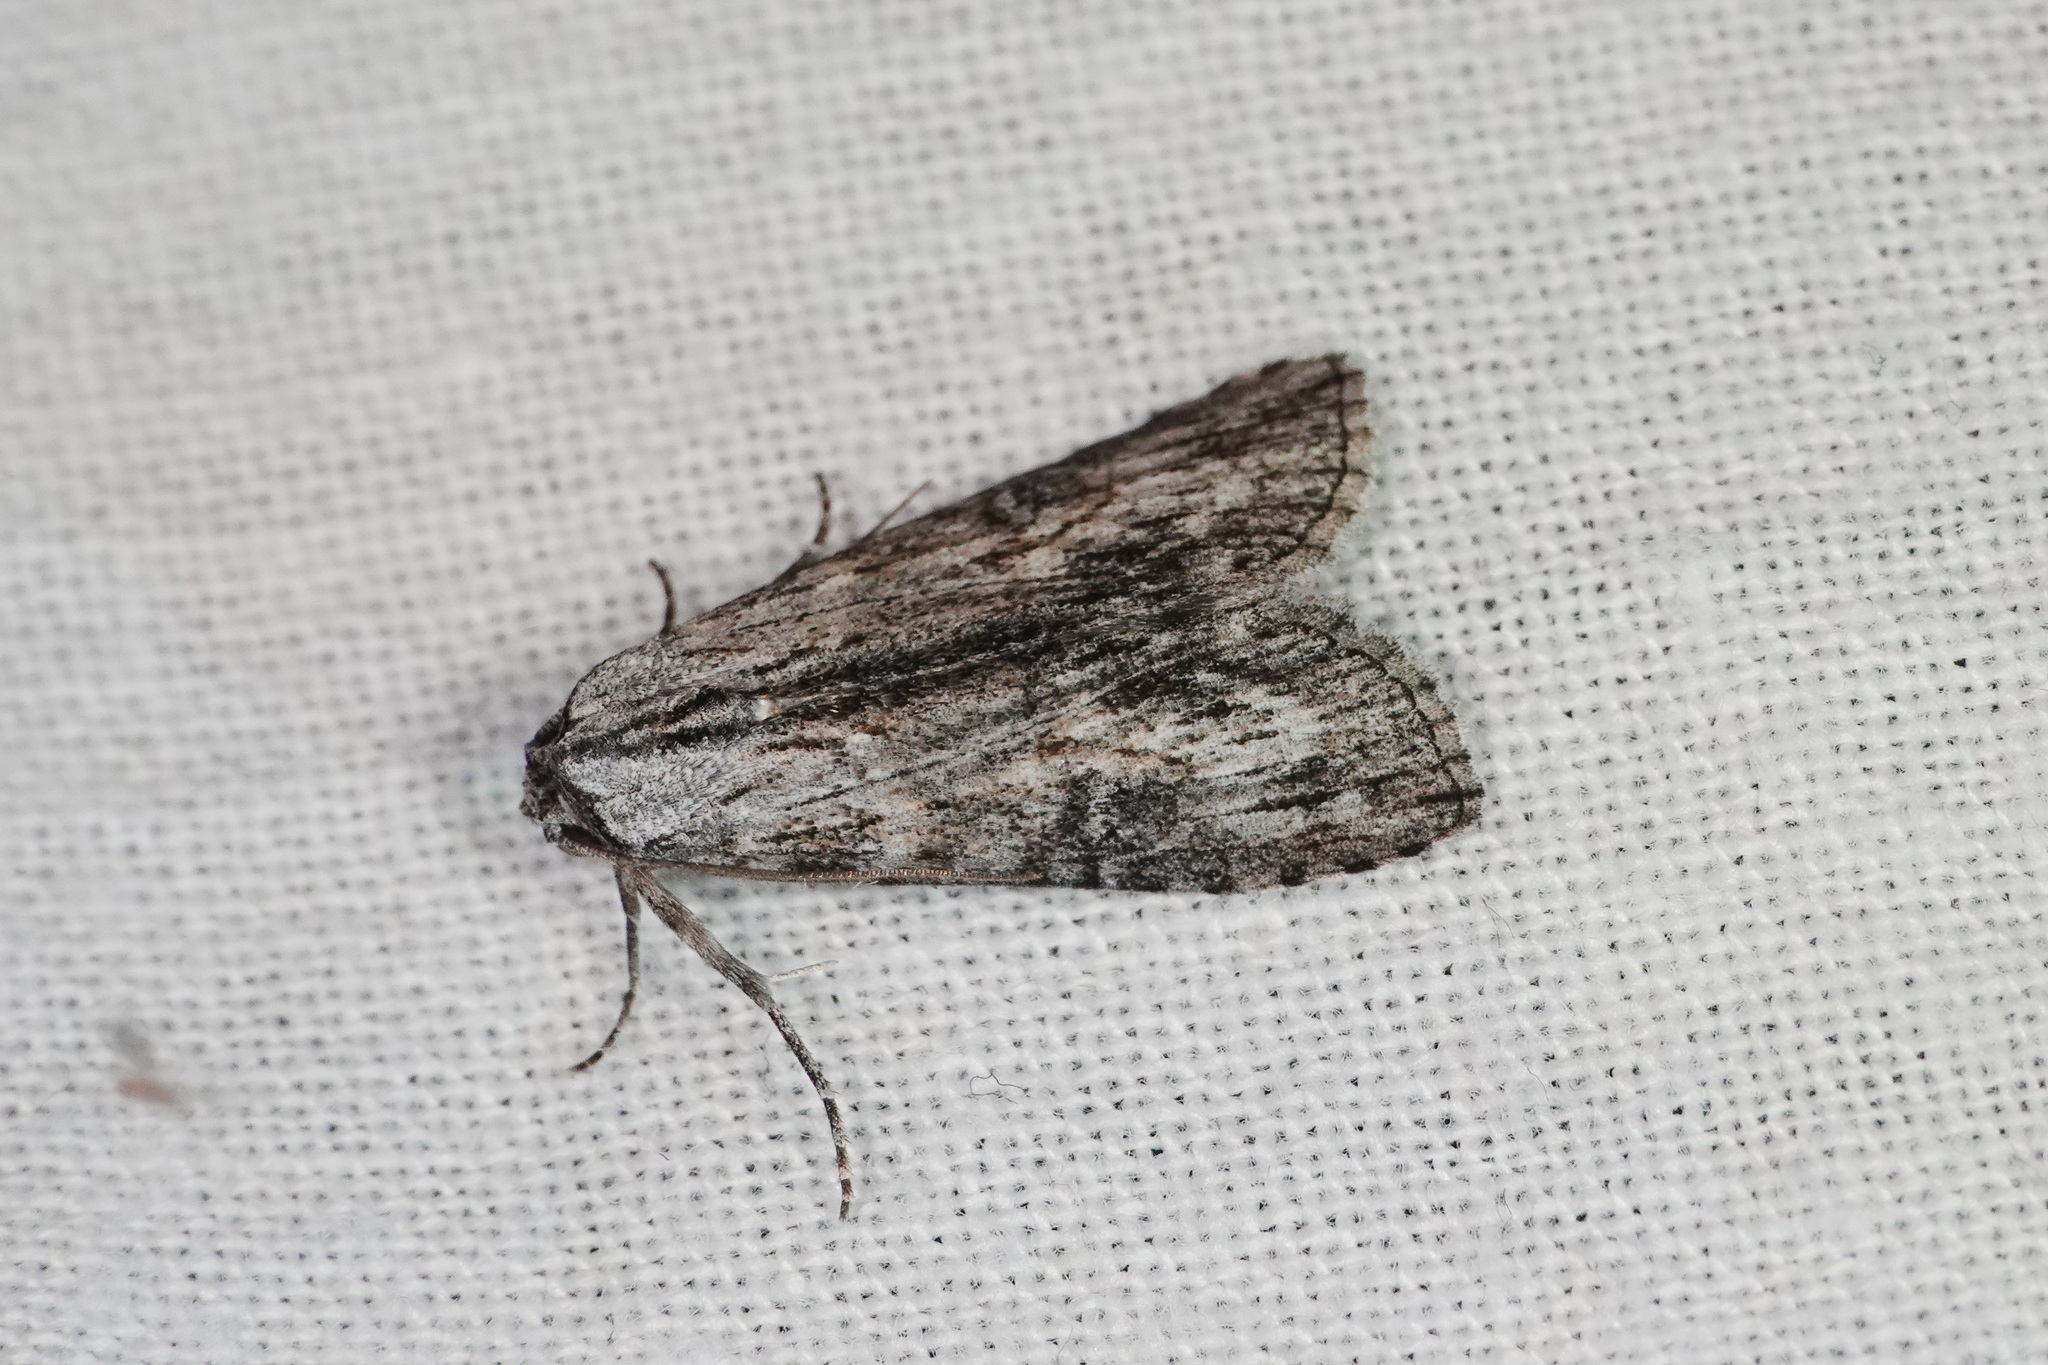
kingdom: Animalia
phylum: Arthropoda
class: Insecta
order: Lepidoptera
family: Nolidae
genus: Calathusa
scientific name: Calathusa ischnodes
